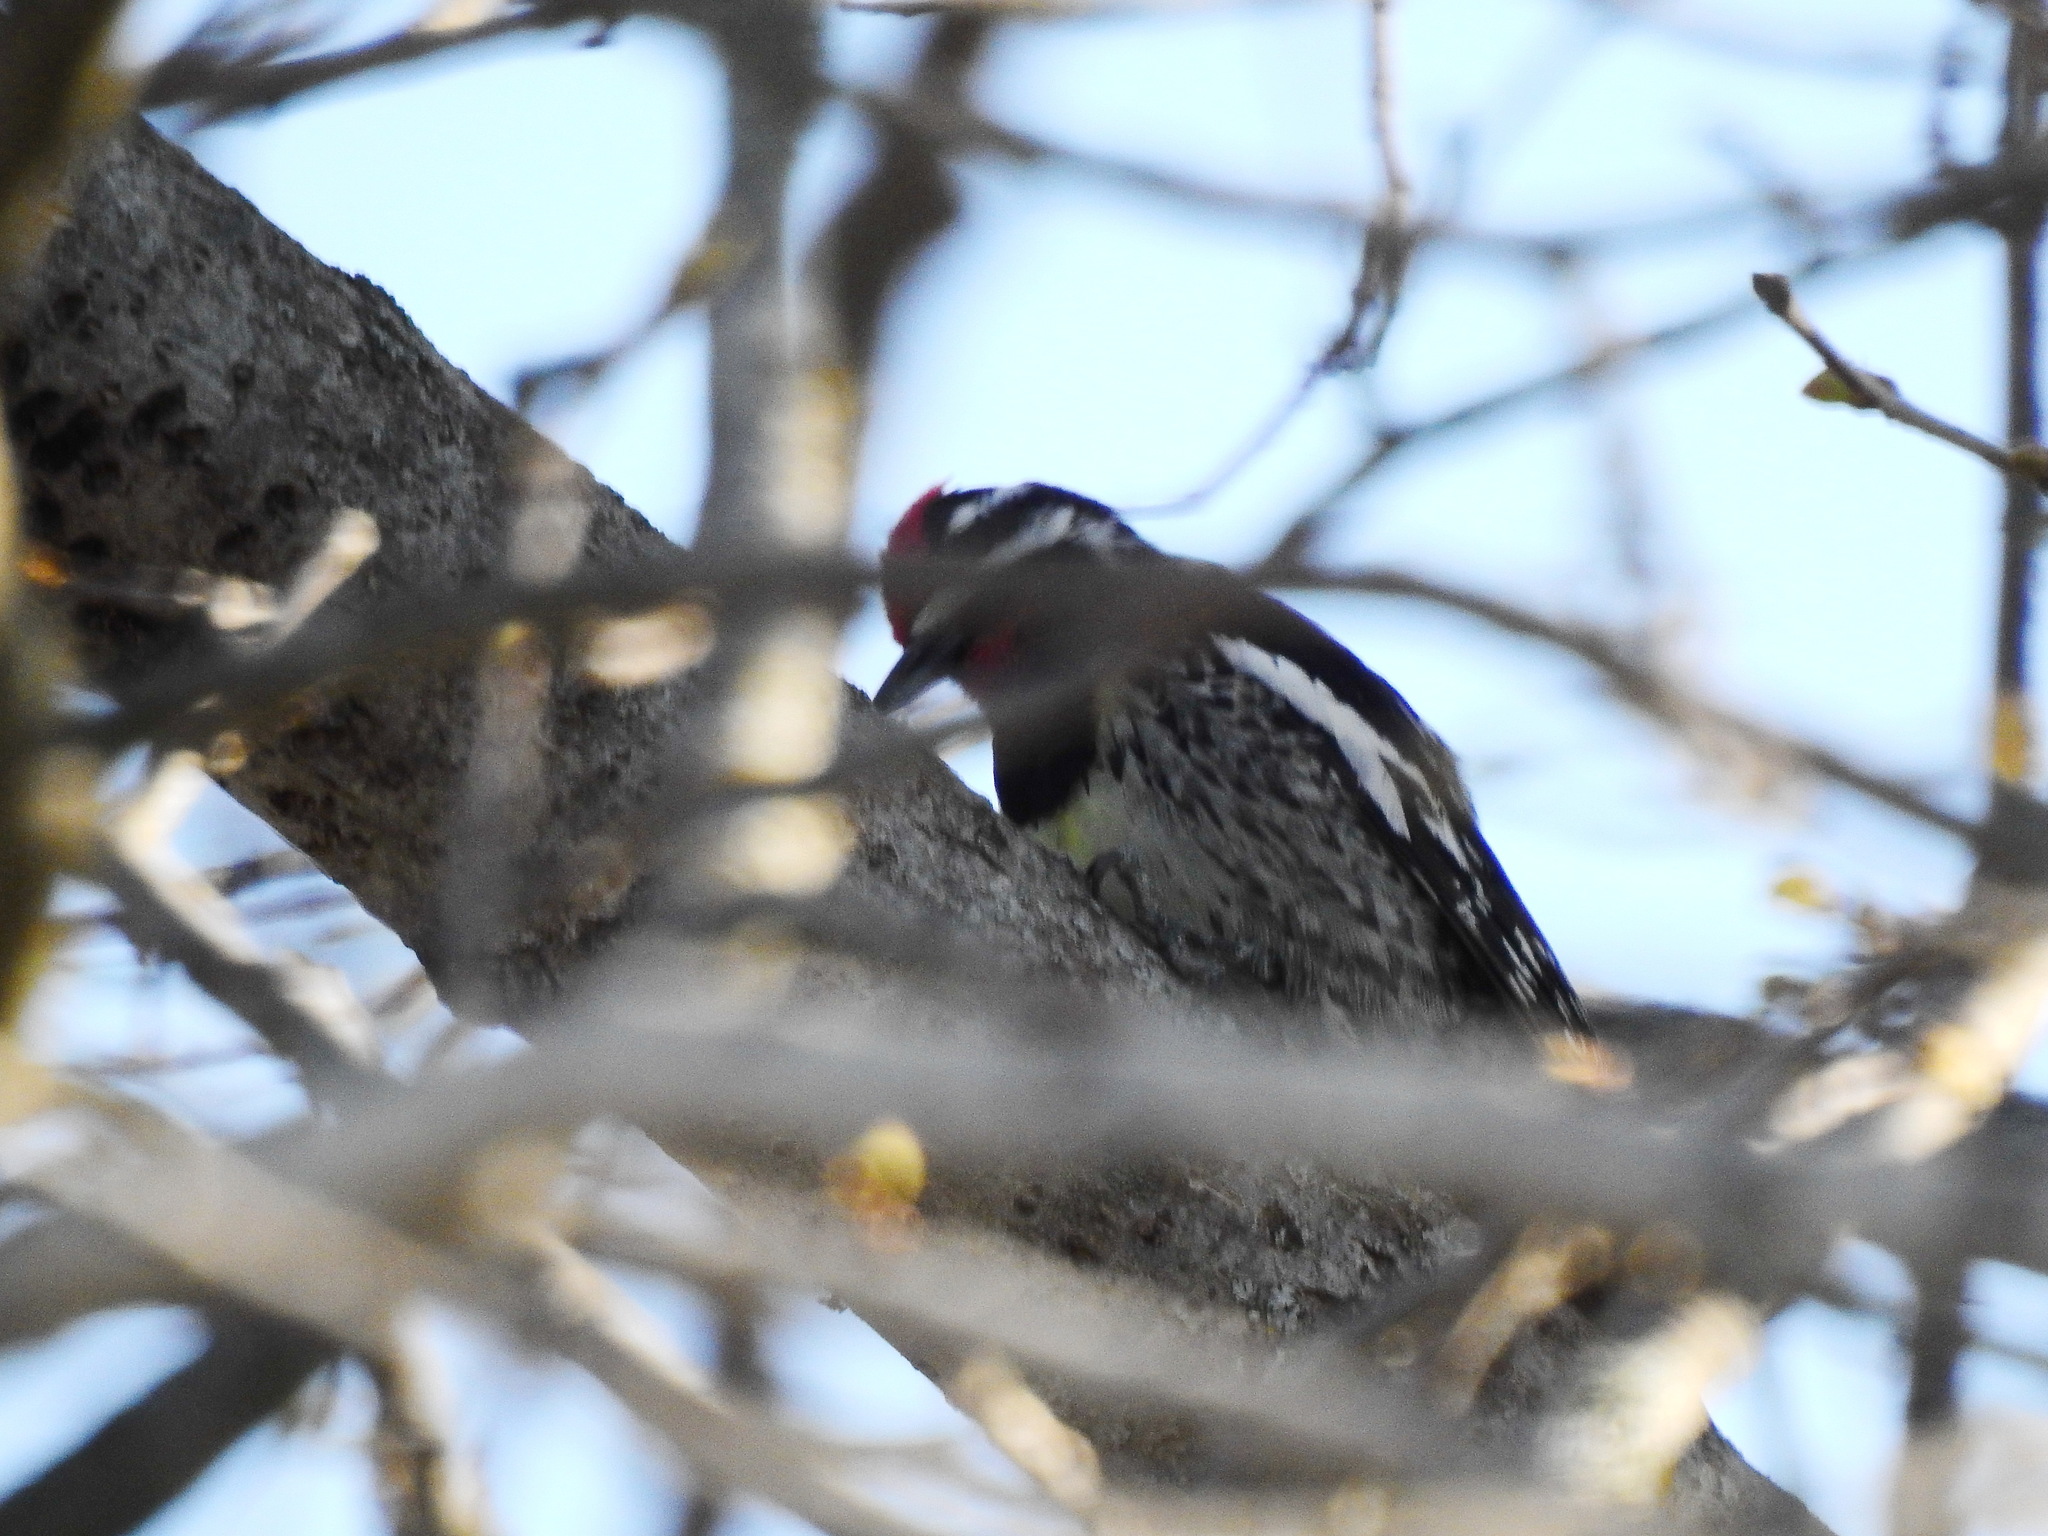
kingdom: Animalia
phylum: Chordata
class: Aves
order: Piciformes
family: Picidae
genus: Sphyrapicus
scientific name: Sphyrapicus varius
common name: Yellow-bellied sapsucker
